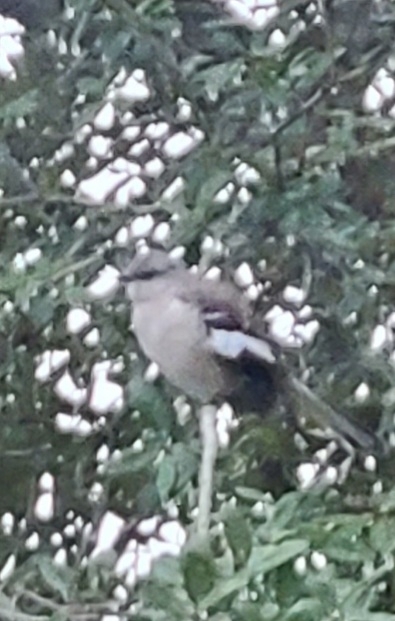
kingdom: Animalia
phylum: Chordata
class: Aves
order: Passeriformes
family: Mimidae
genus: Mimus
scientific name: Mimus polyglottos
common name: Northern mockingbird
